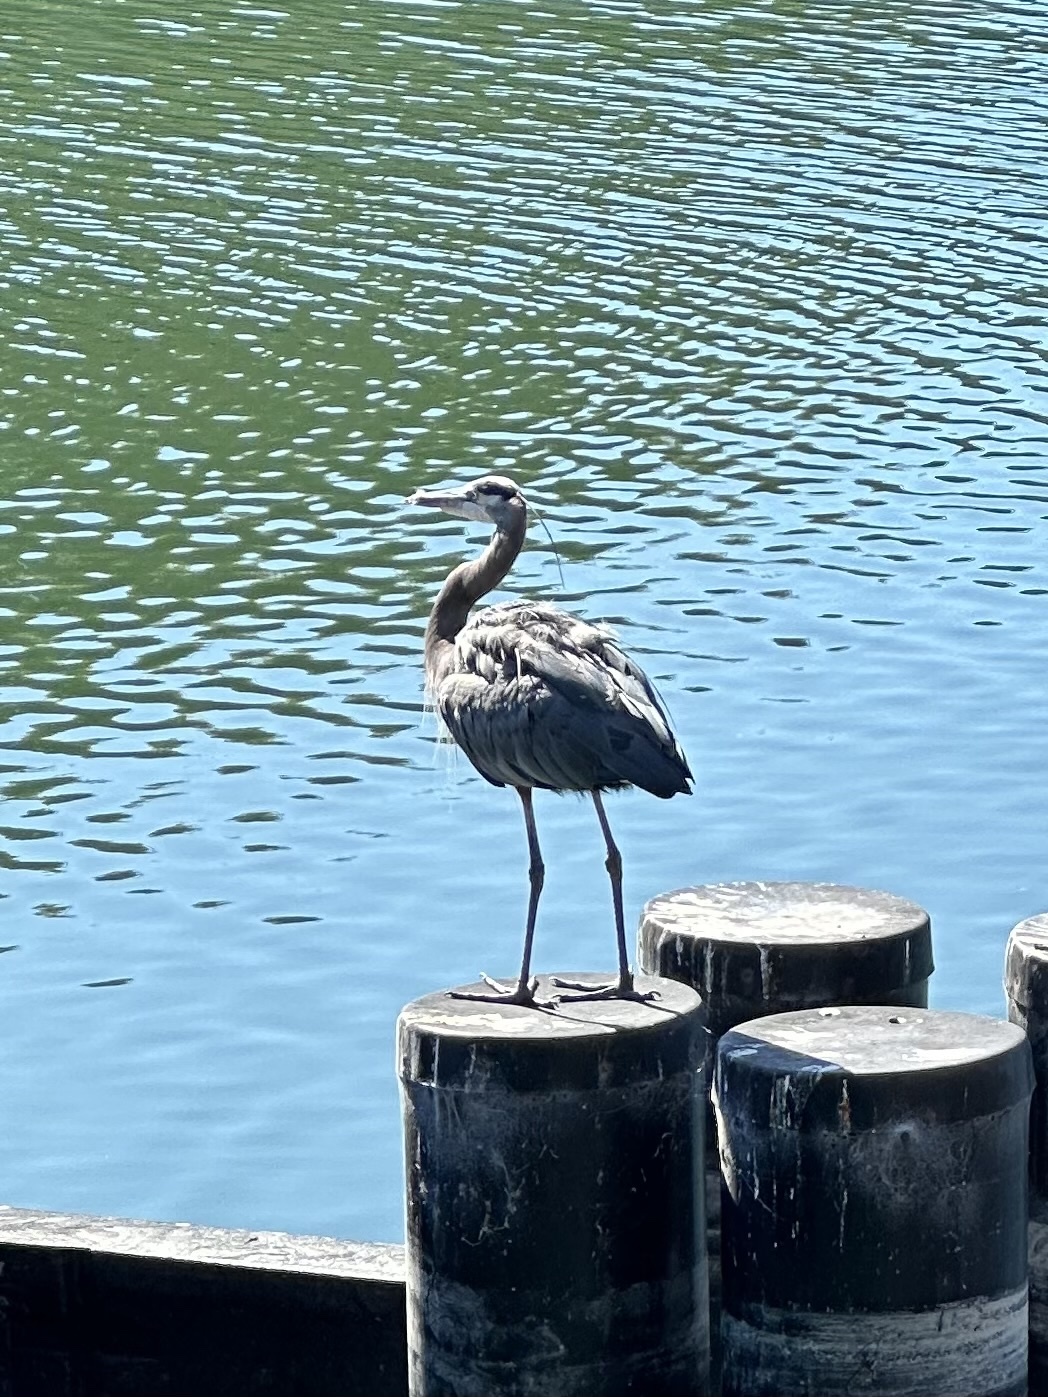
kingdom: Animalia
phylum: Chordata
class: Aves
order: Pelecaniformes
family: Ardeidae
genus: Ardea
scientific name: Ardea herodias
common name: Great blue heron
